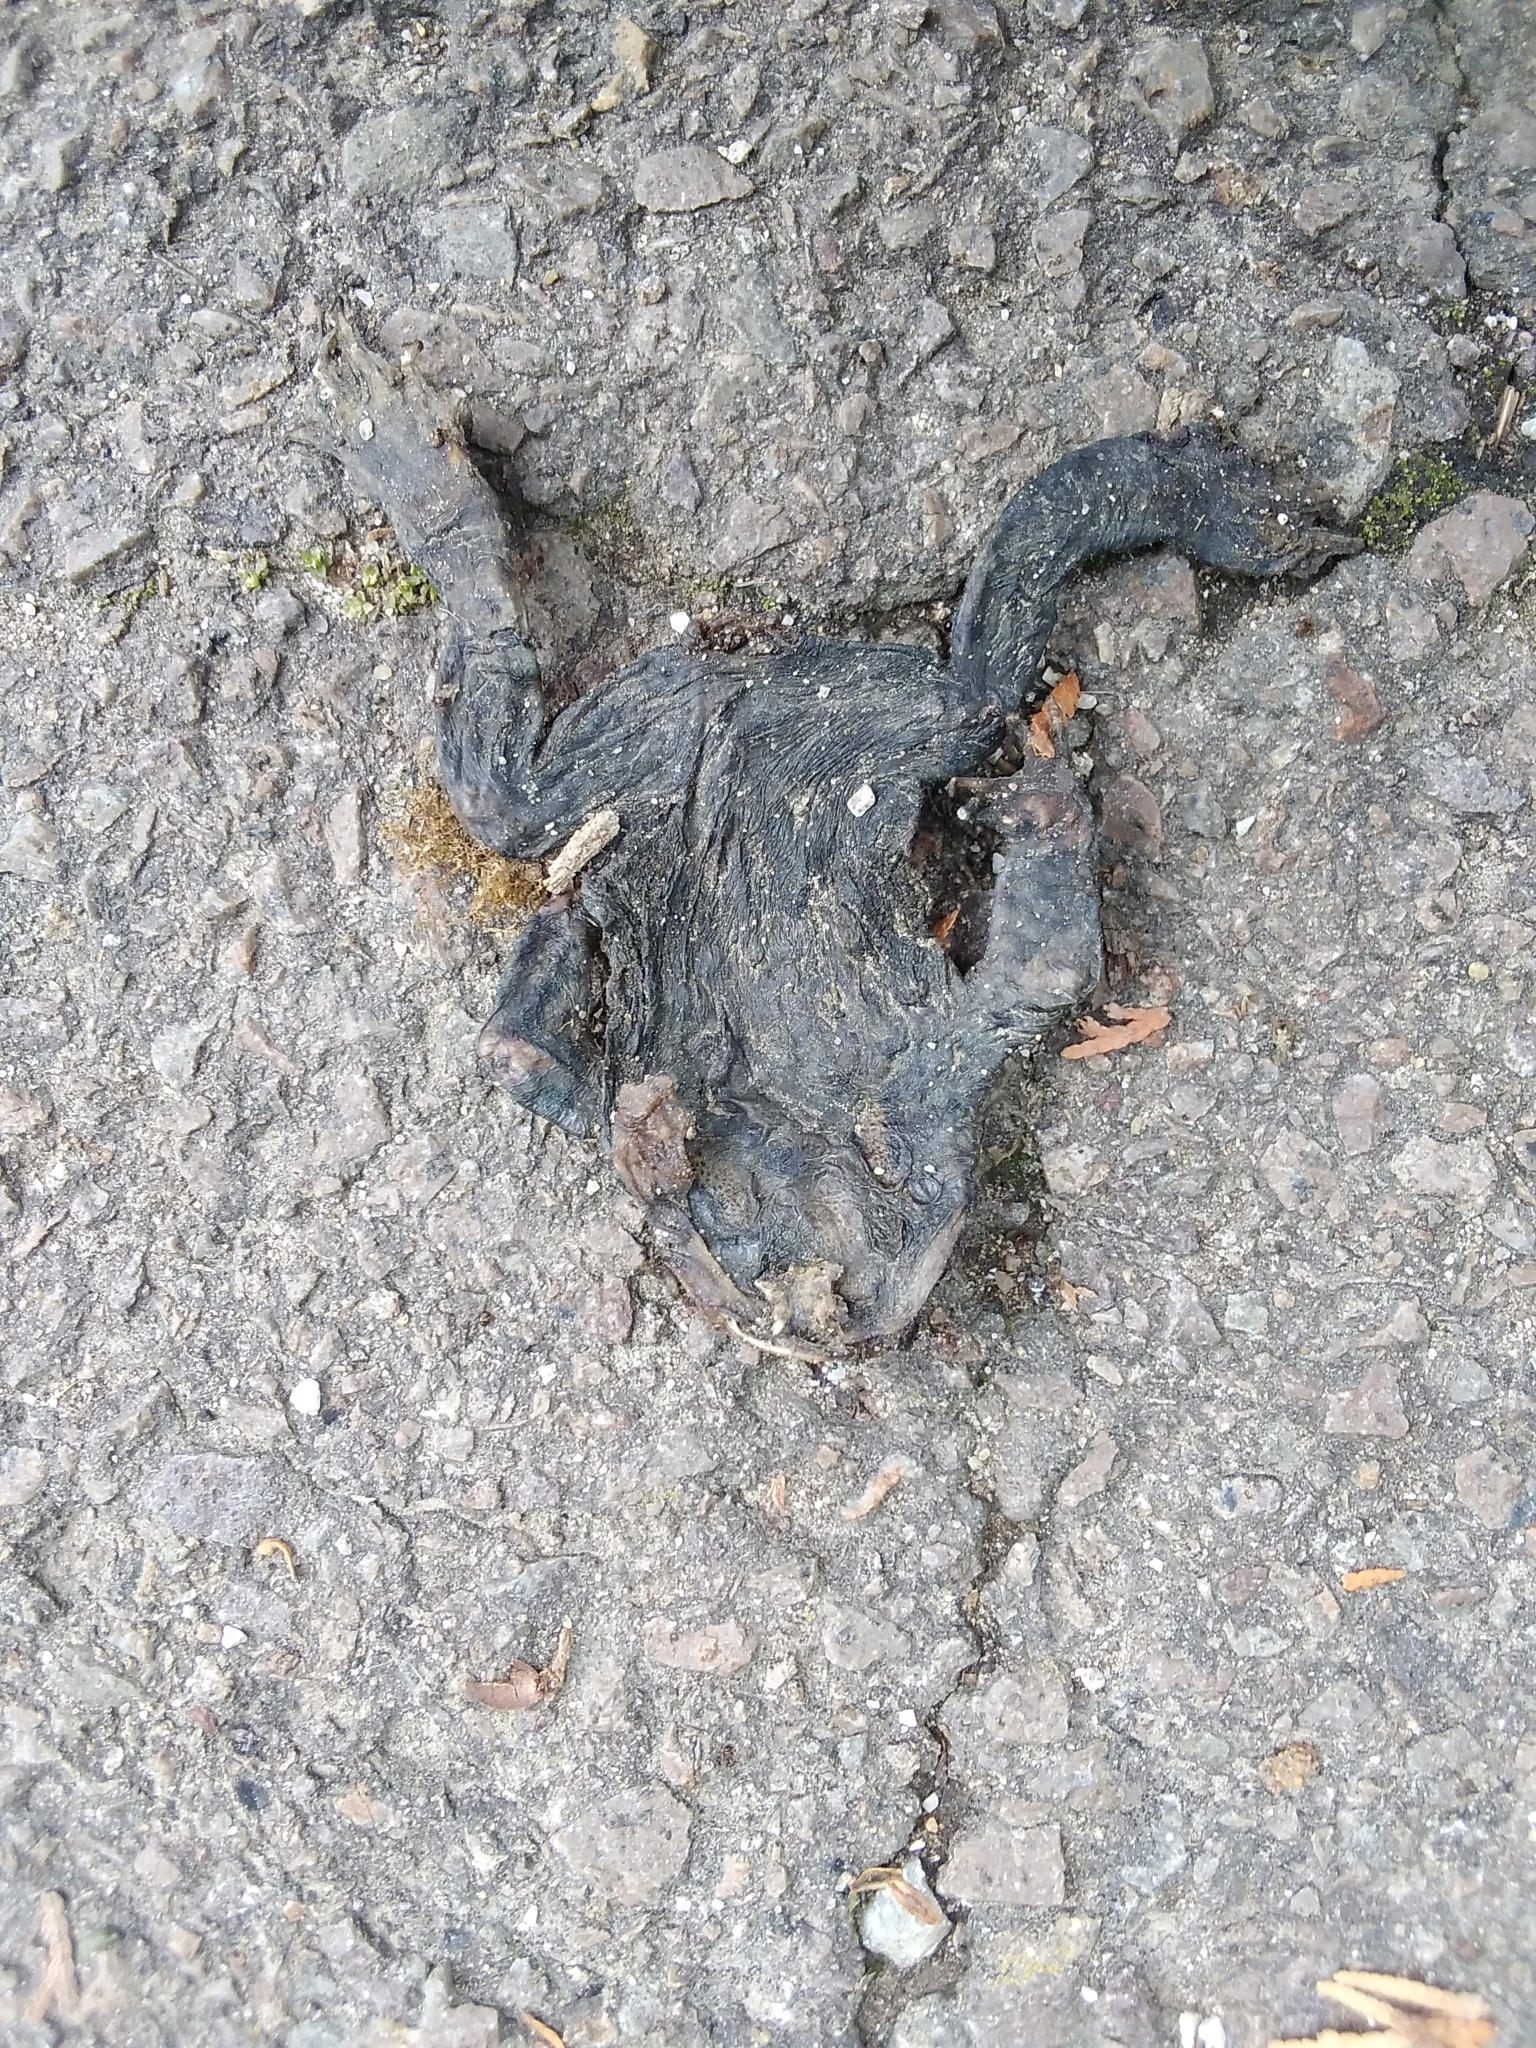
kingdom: Animalia
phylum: Chordata
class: Amphibia
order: Anura
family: Bufonidae
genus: Bufotes
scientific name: Bufotes viridis
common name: European green toad
